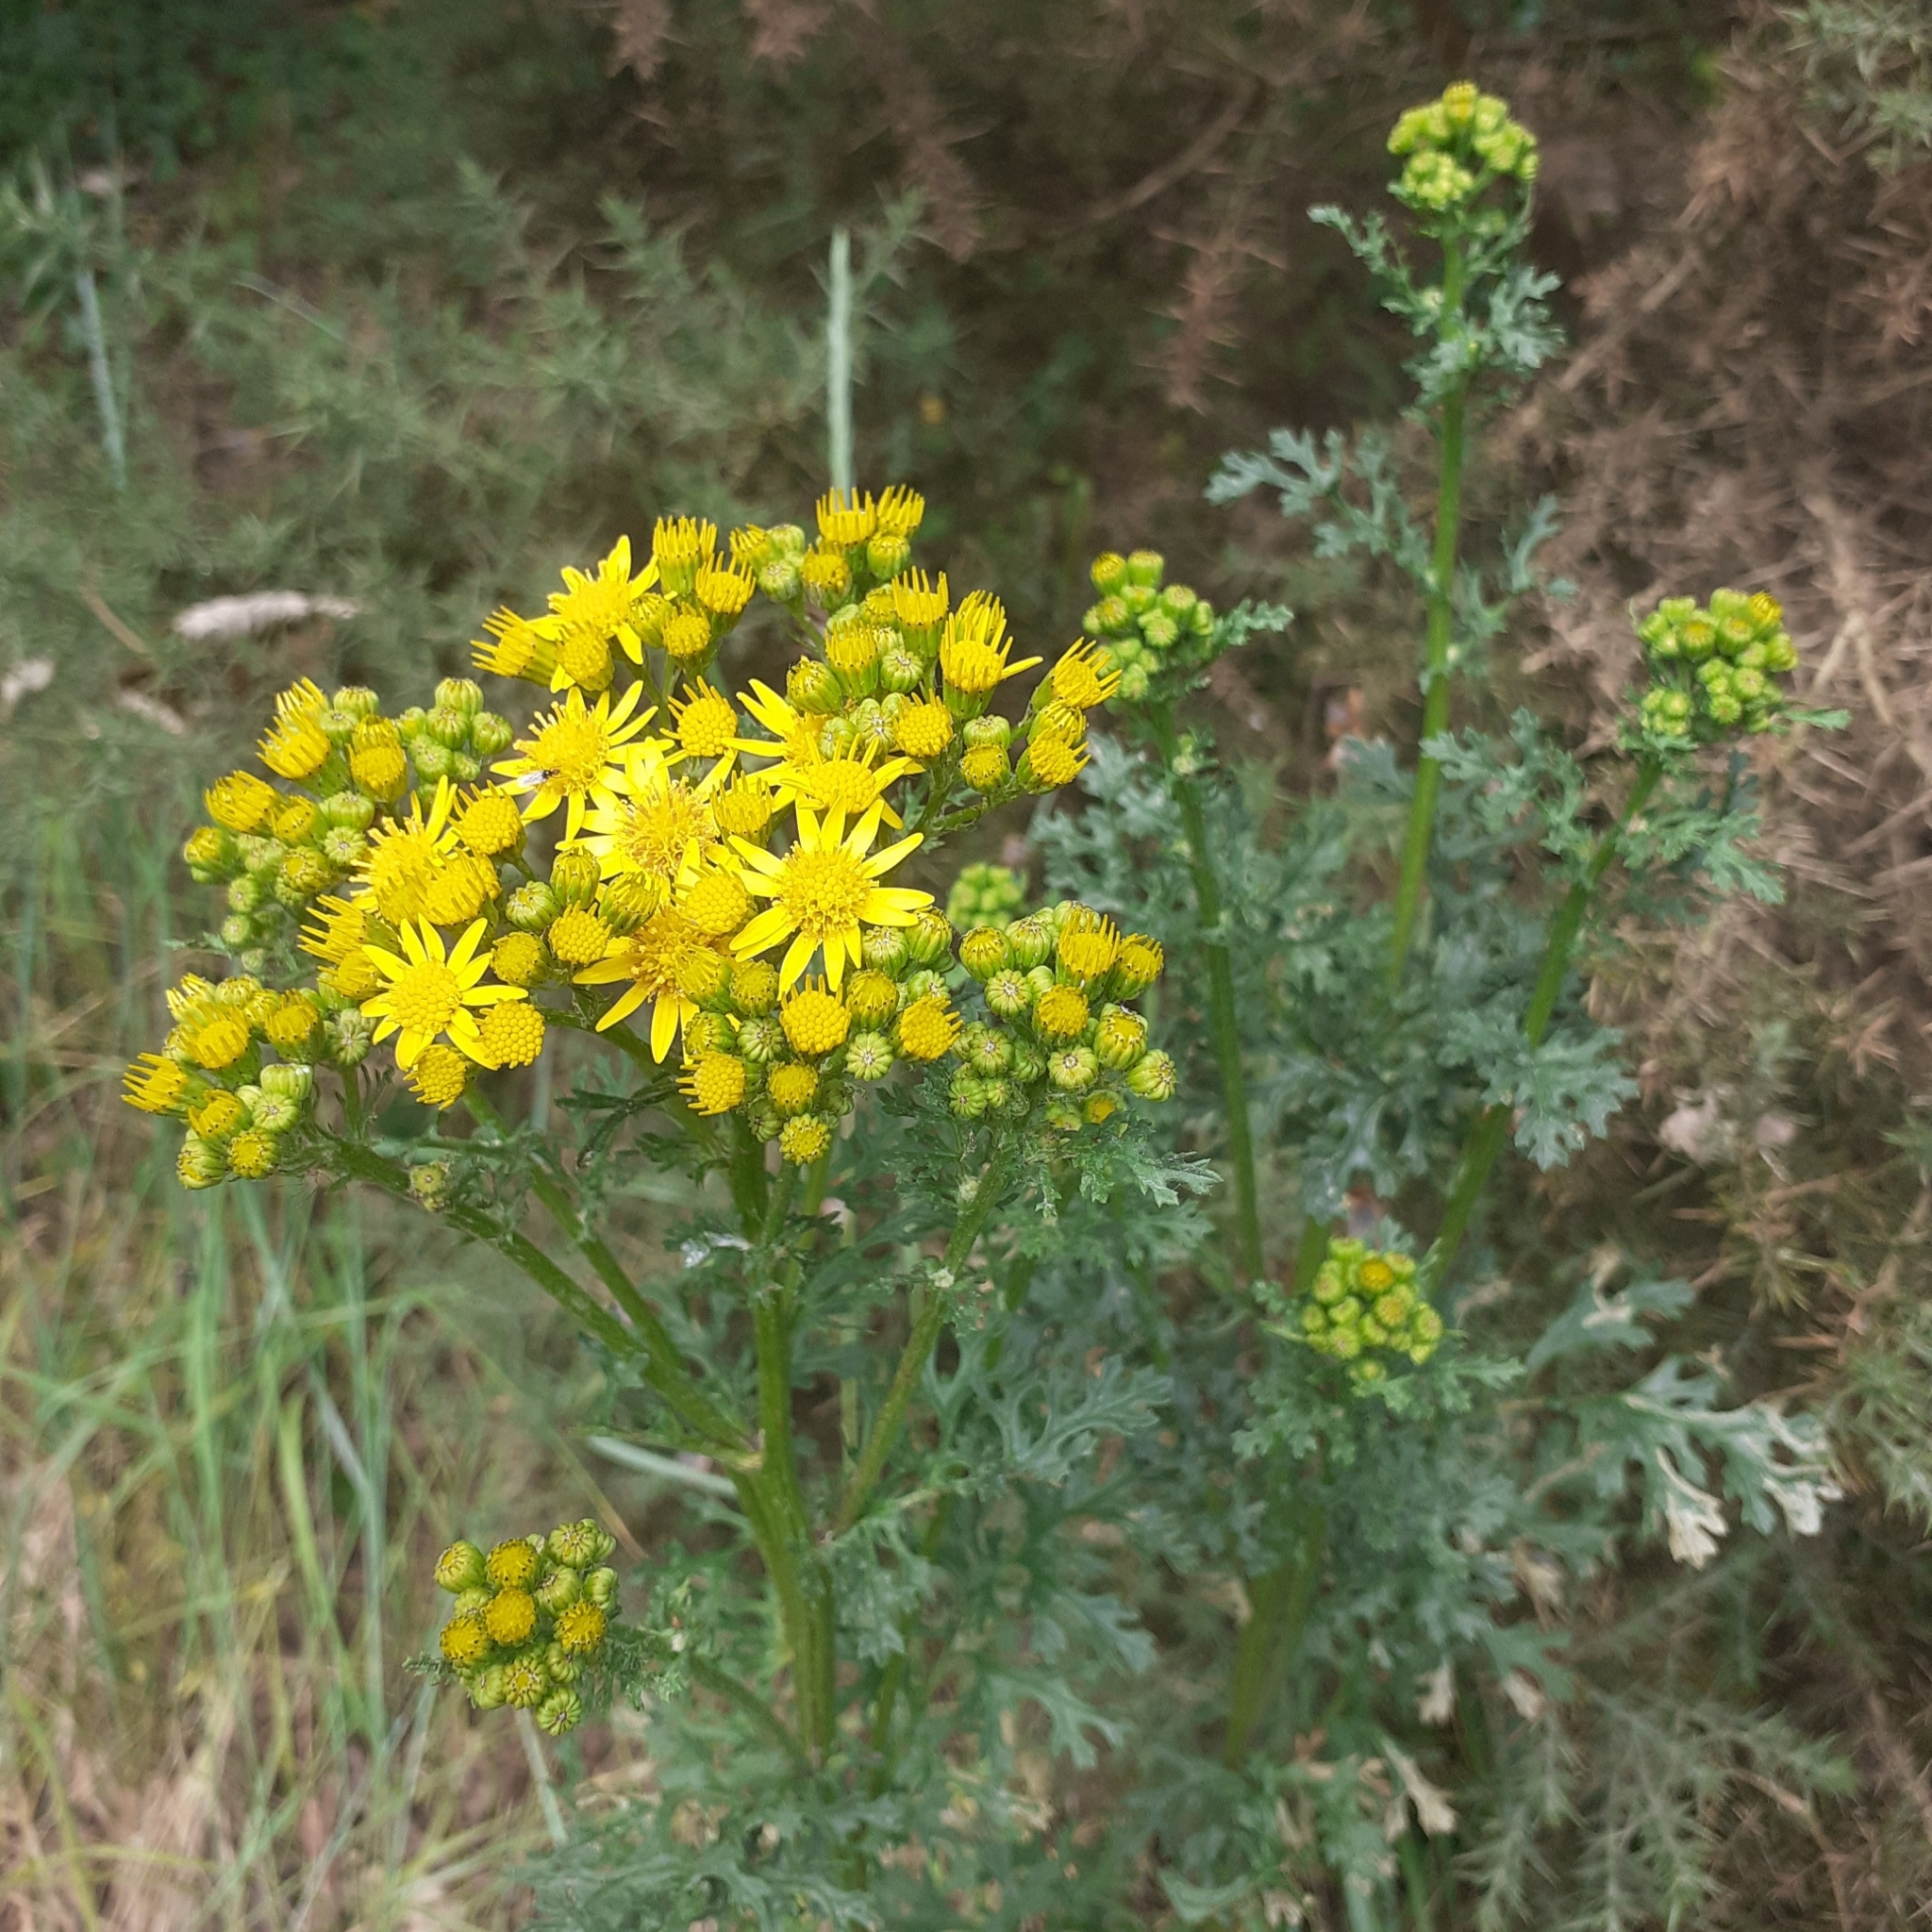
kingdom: Plantae
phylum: Tracheophyta
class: Magnoliopsida
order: Asterales
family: Asteraceae
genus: Jacobaea
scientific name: Jacobaea vulgaris
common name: Stinking willie
